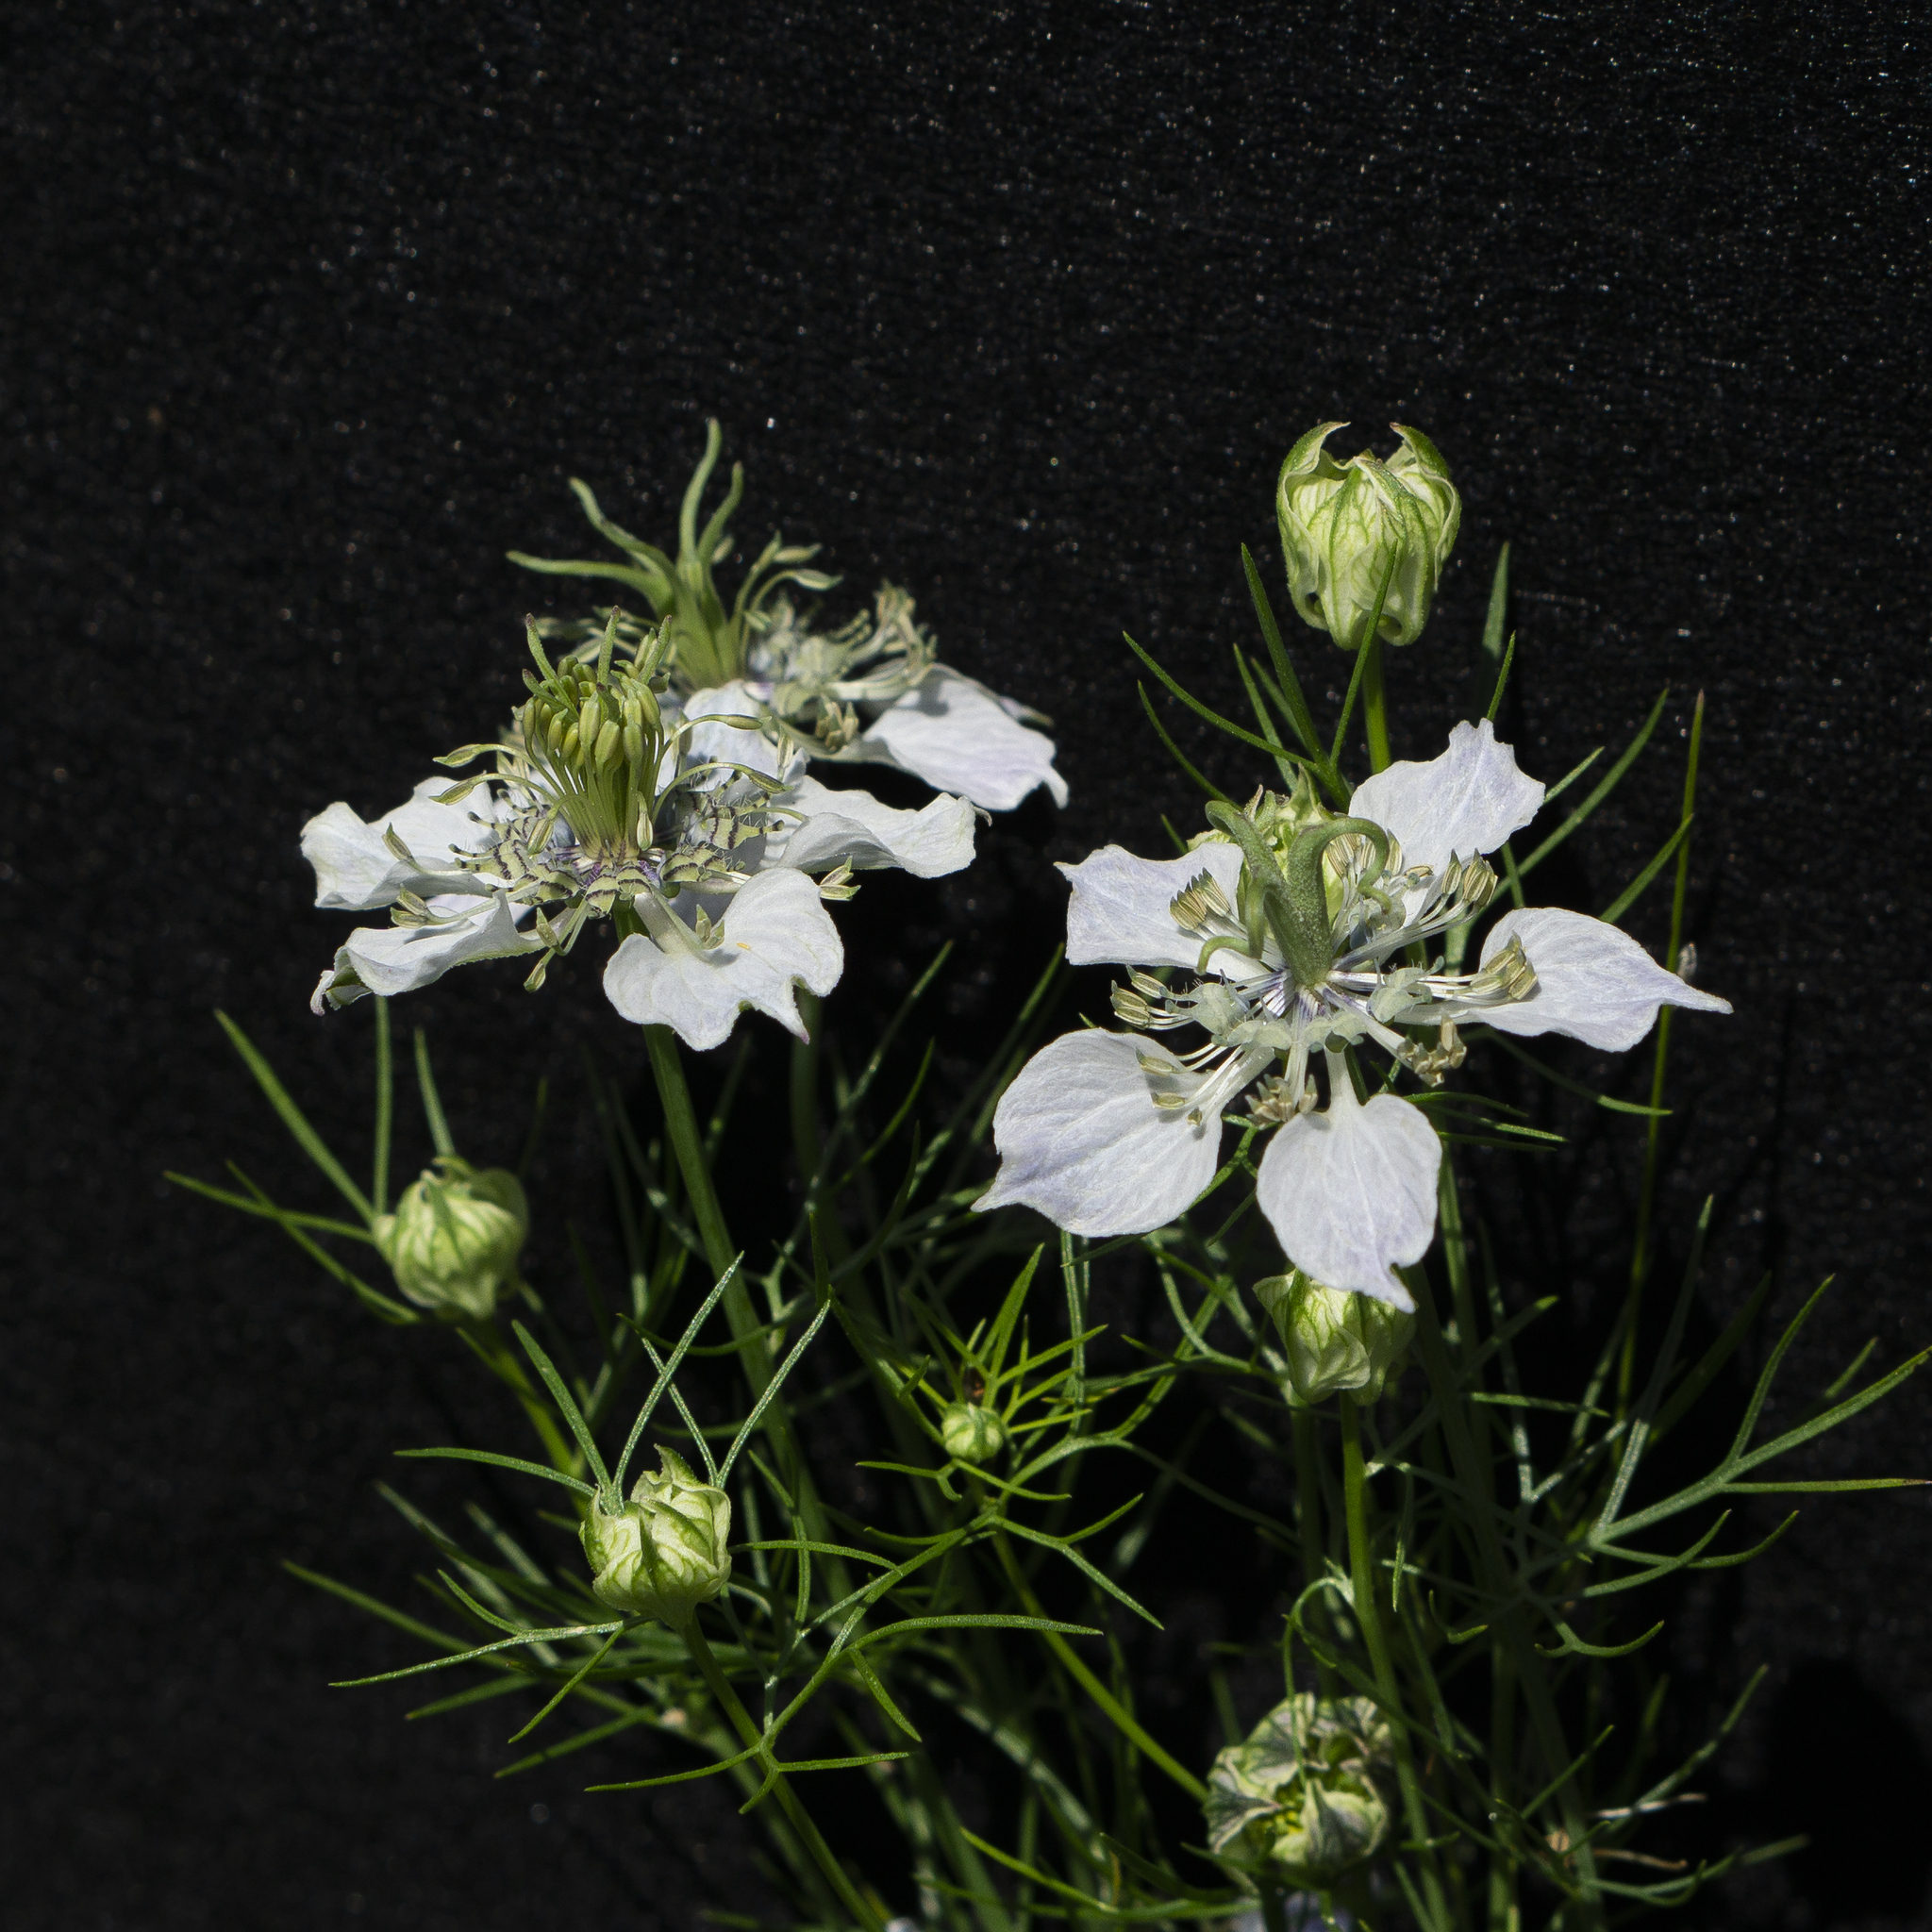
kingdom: Plantae
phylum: Tracheophyta
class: Magnoliopsida
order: Ranunculales
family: Ranunculaceae
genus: Nigella
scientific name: Nigella sativa
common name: Black-cumin
